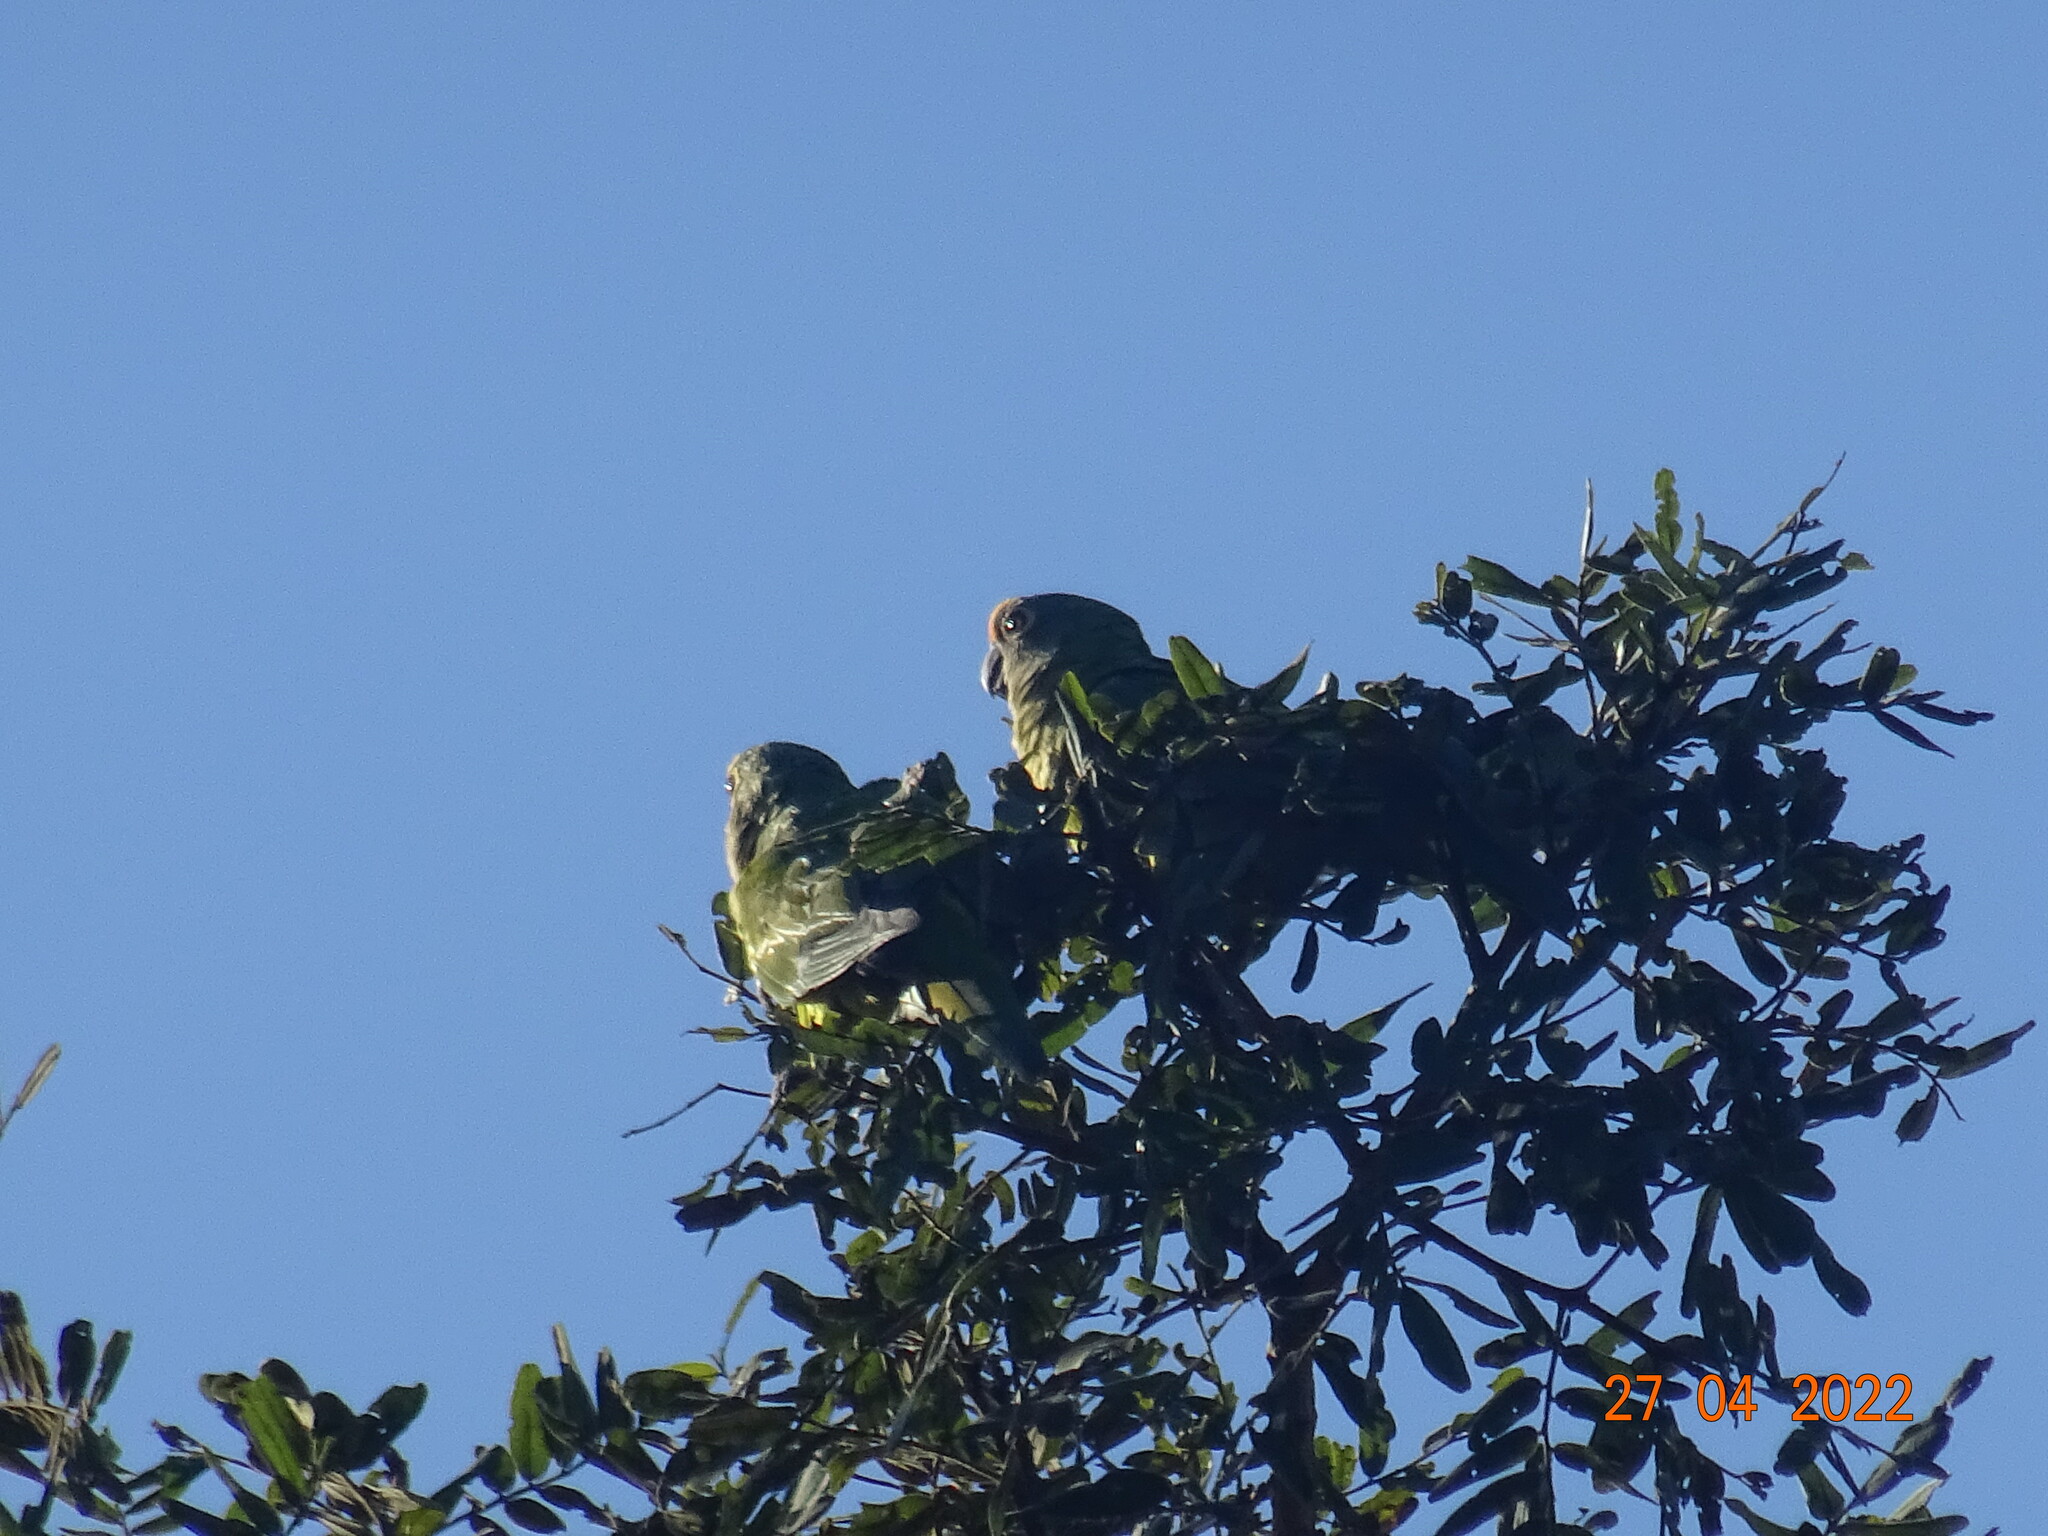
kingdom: Animalia
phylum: Chordata
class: Aves
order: Psittaciformes
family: Psittacidae
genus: Aratinga
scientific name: Aratinga aurea
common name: Peach-fronted parakeet
